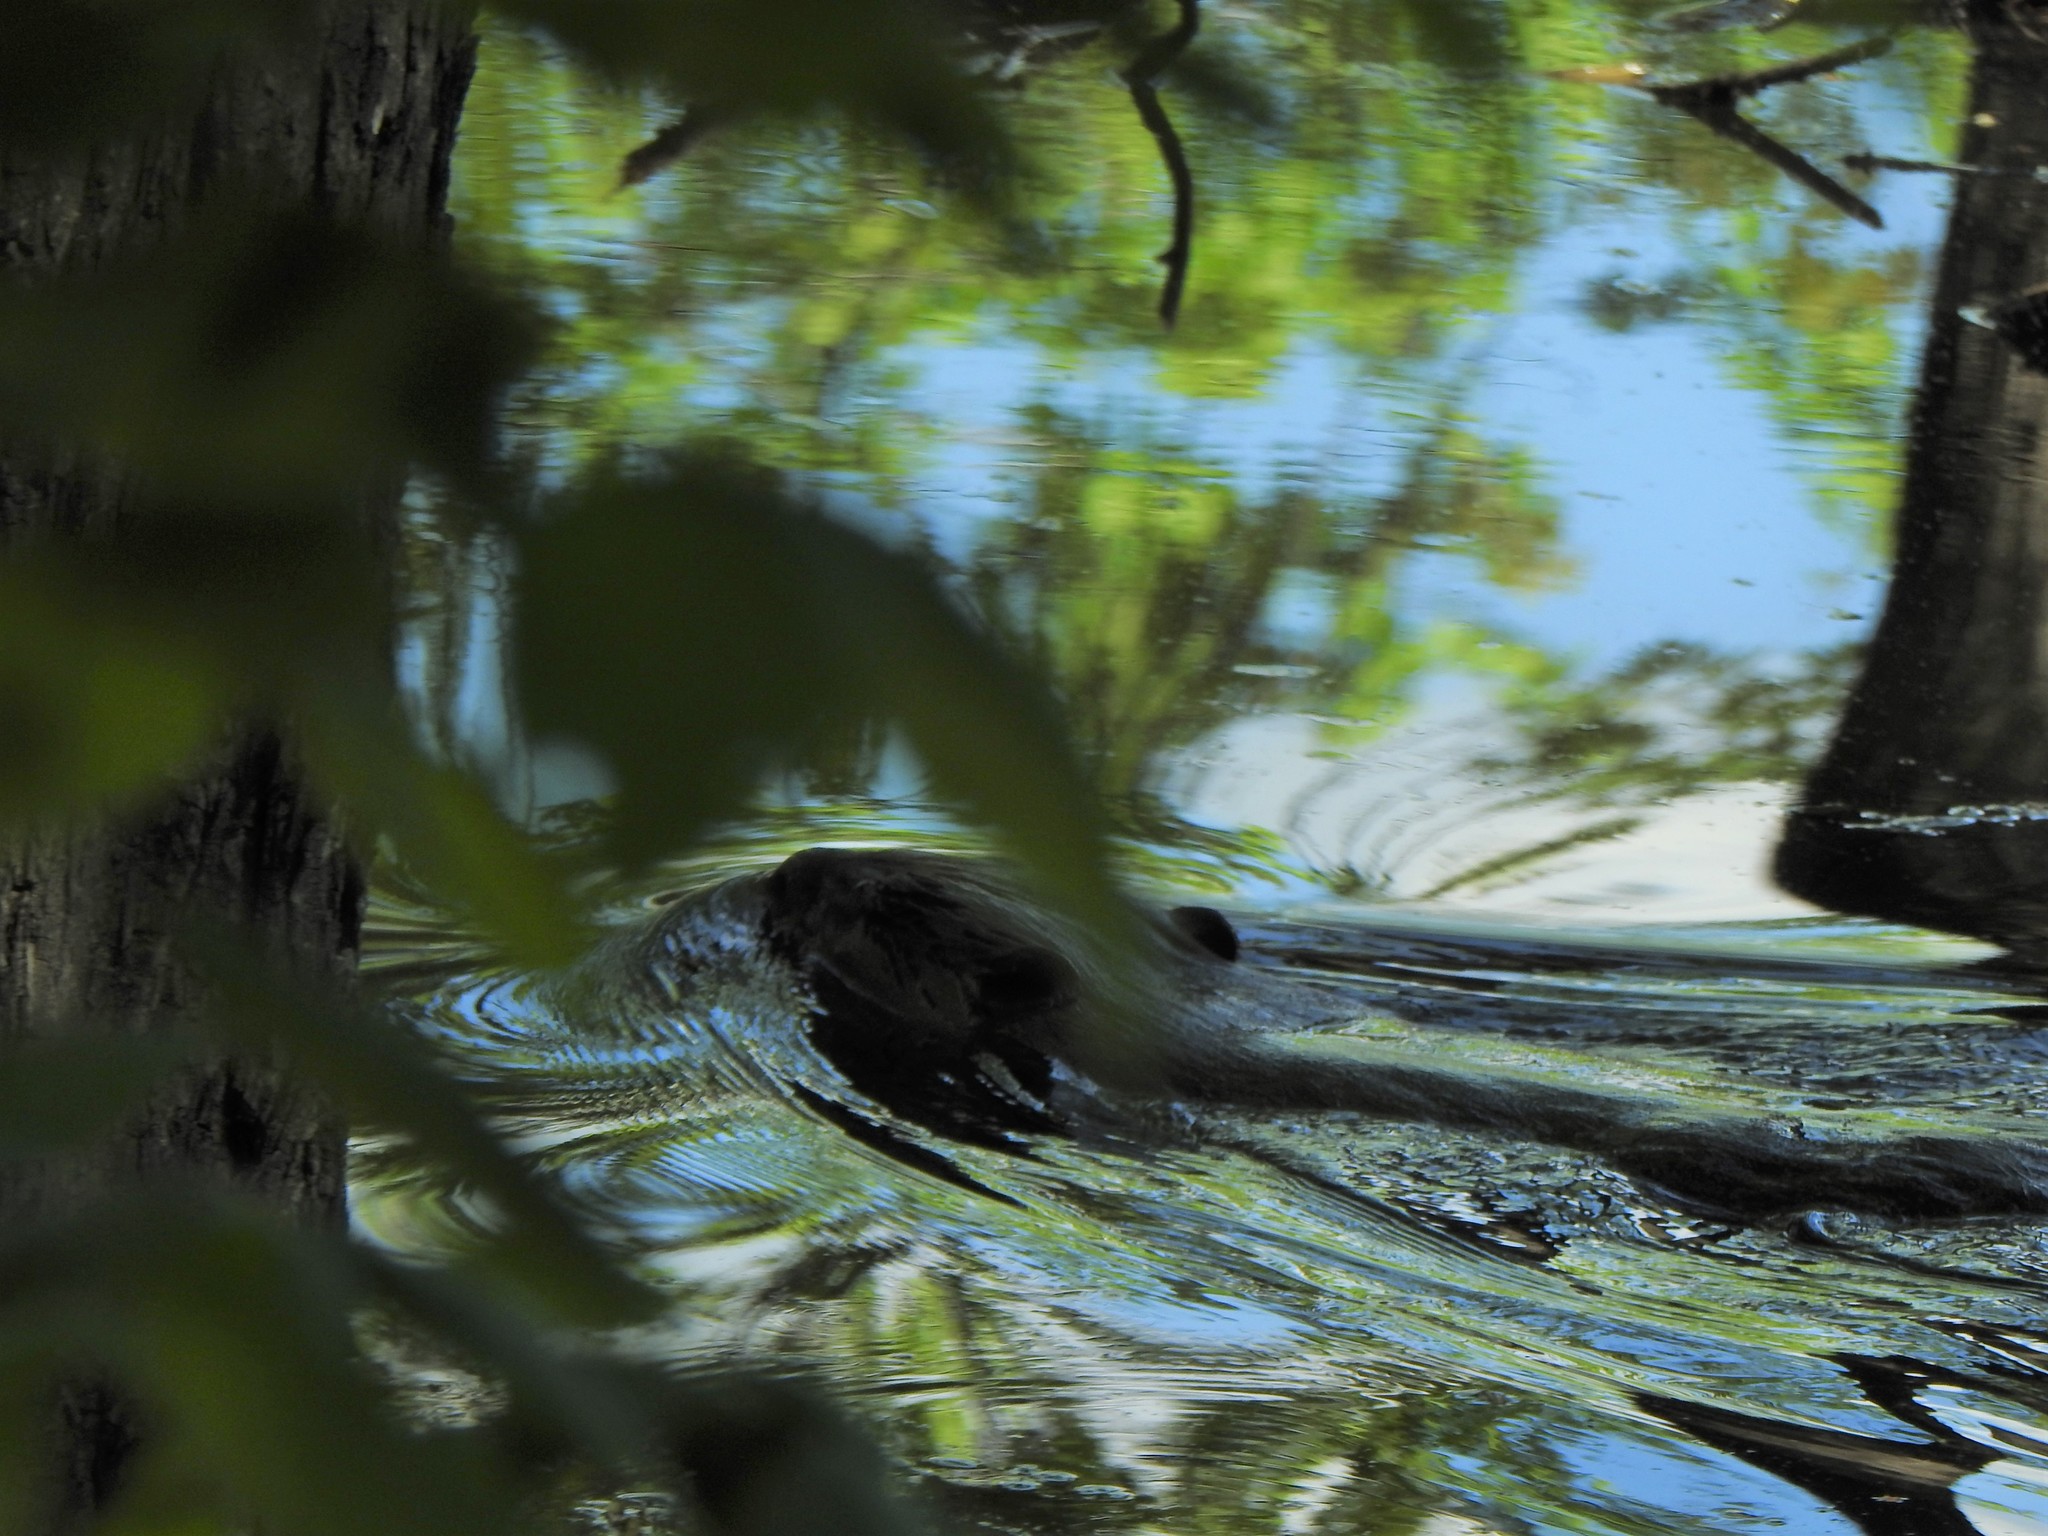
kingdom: Animalia
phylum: Chordata
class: Mammalia
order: Rodentia
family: Castoridae
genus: Castor
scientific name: Castor canadensis
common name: American beaver
